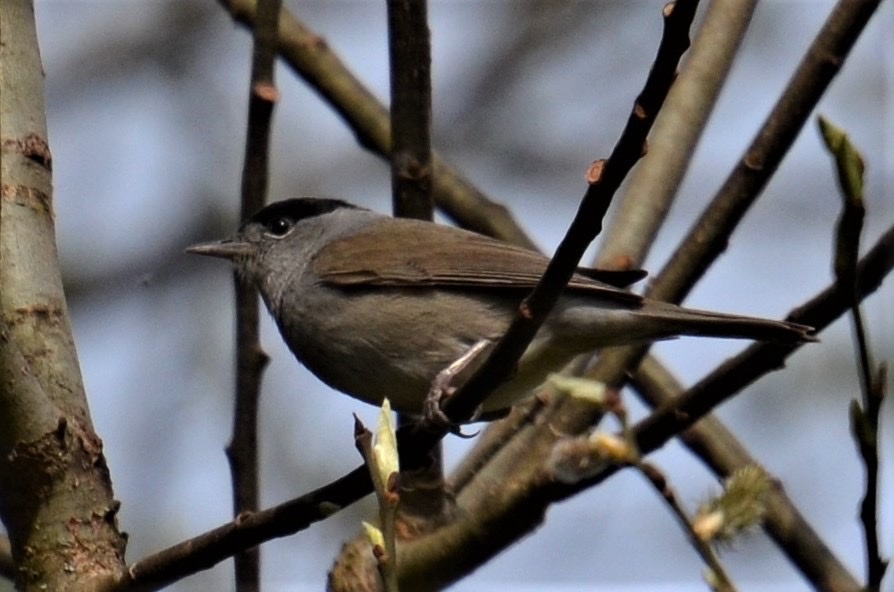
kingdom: Animalia
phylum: Chordata
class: Aves
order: Passeriformes
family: Sylviidae
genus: Sylvia
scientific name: Sylvia atricapilla
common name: Eurasian blackcap
